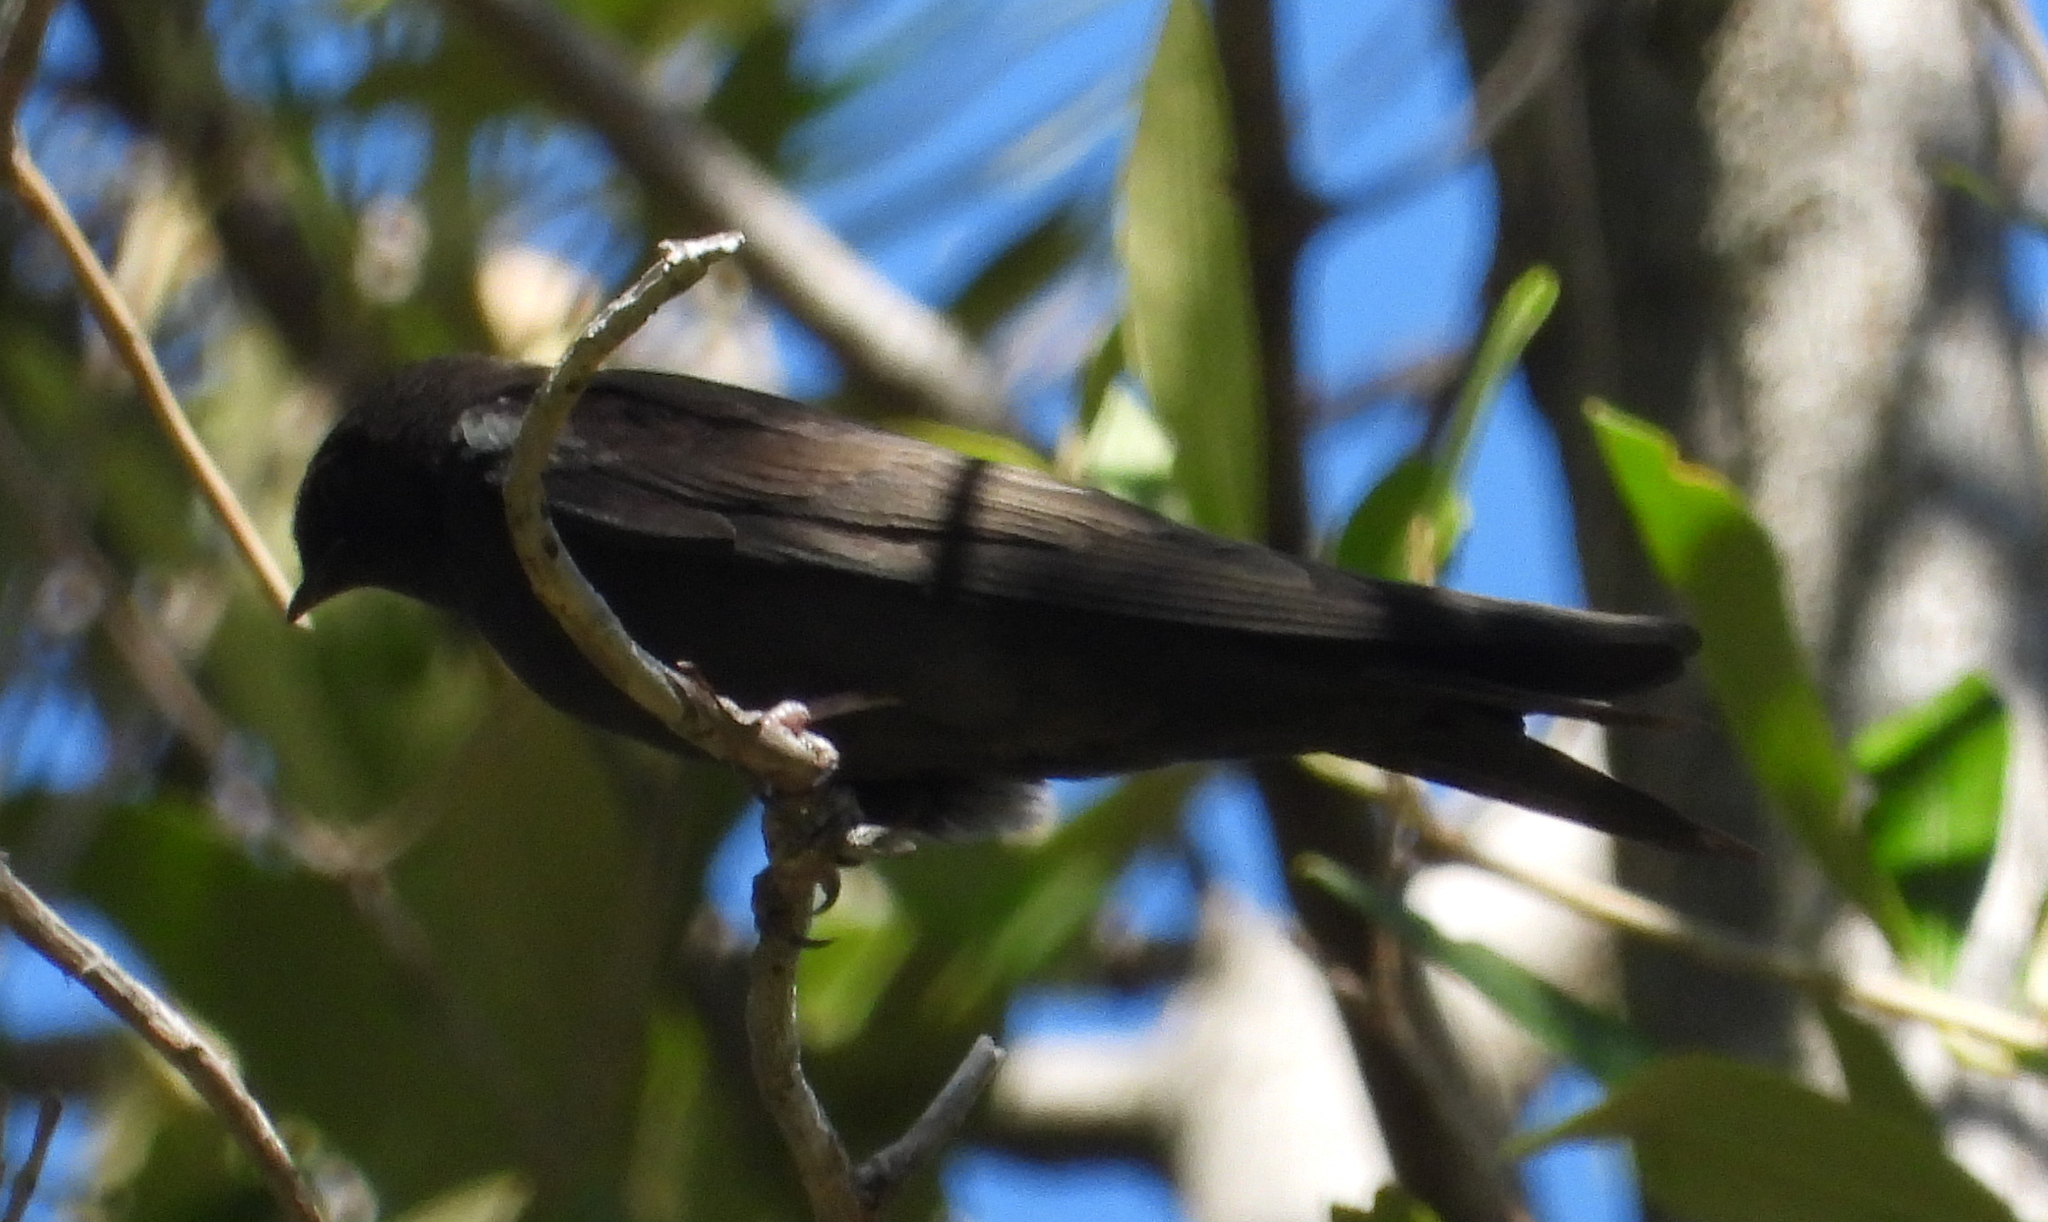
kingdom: Animalia
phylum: Chordata
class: Aves
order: Passeriformes
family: Hirundinidae
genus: Psalidoprocne
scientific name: Psalidoprocne pristoptera
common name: Black saw-wing
